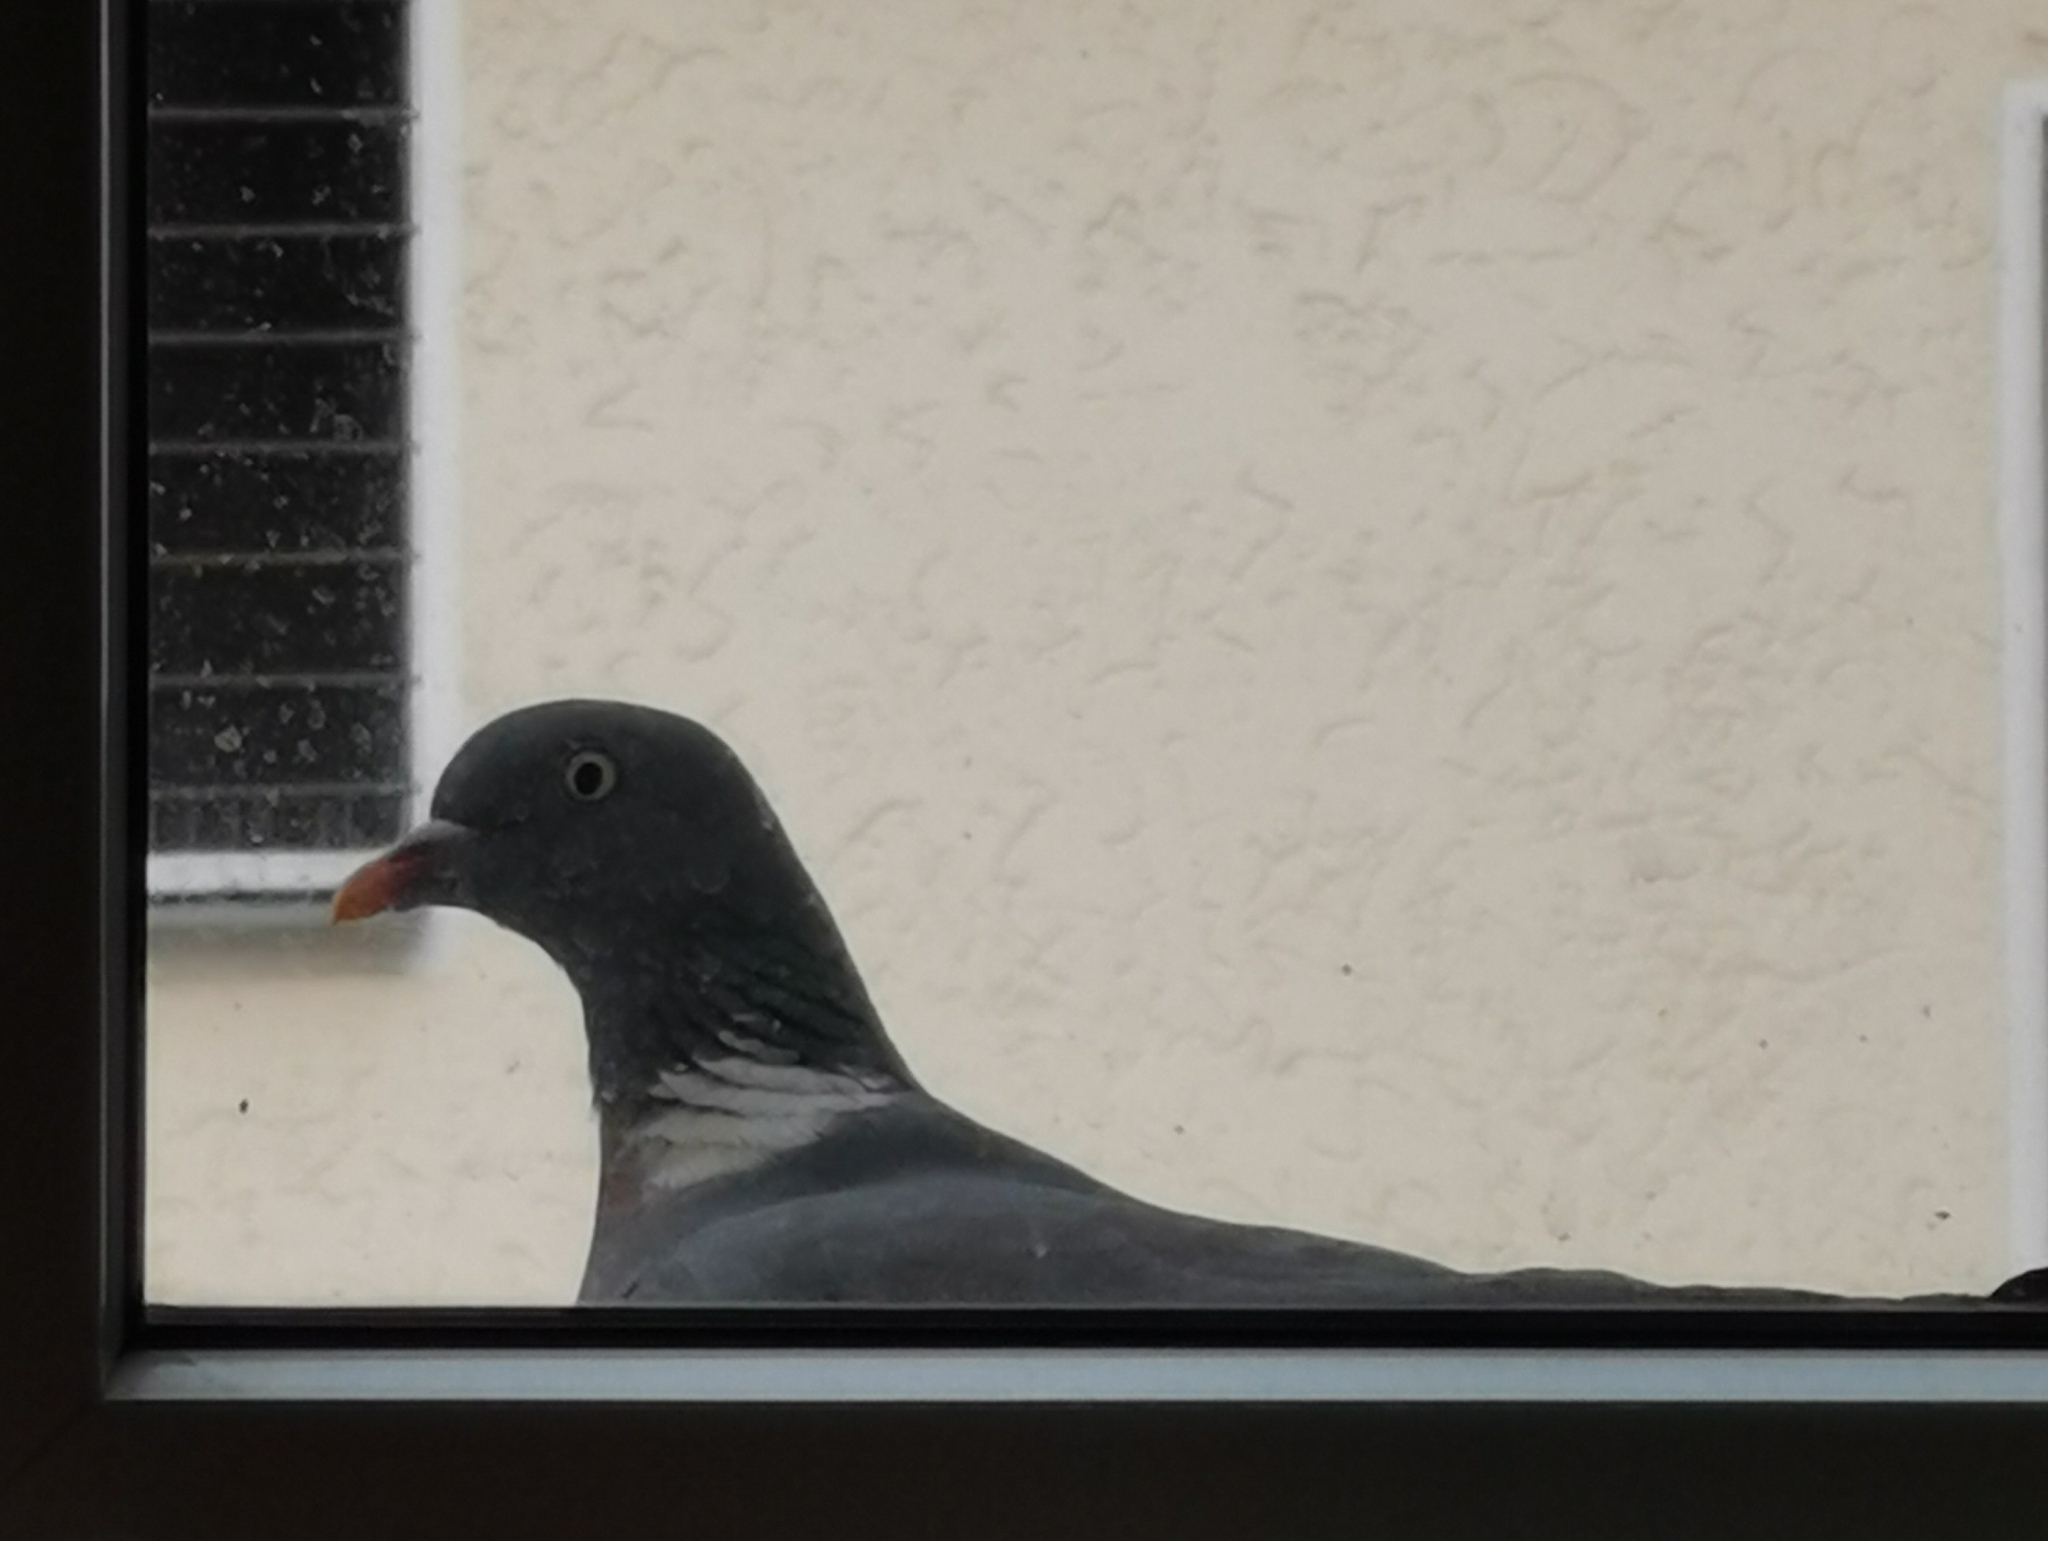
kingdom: Animalia
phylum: Chordata
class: Aves
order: Columbiformes
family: Columbidae
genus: Columba
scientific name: Columba palumbus
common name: Common wood pigeon
